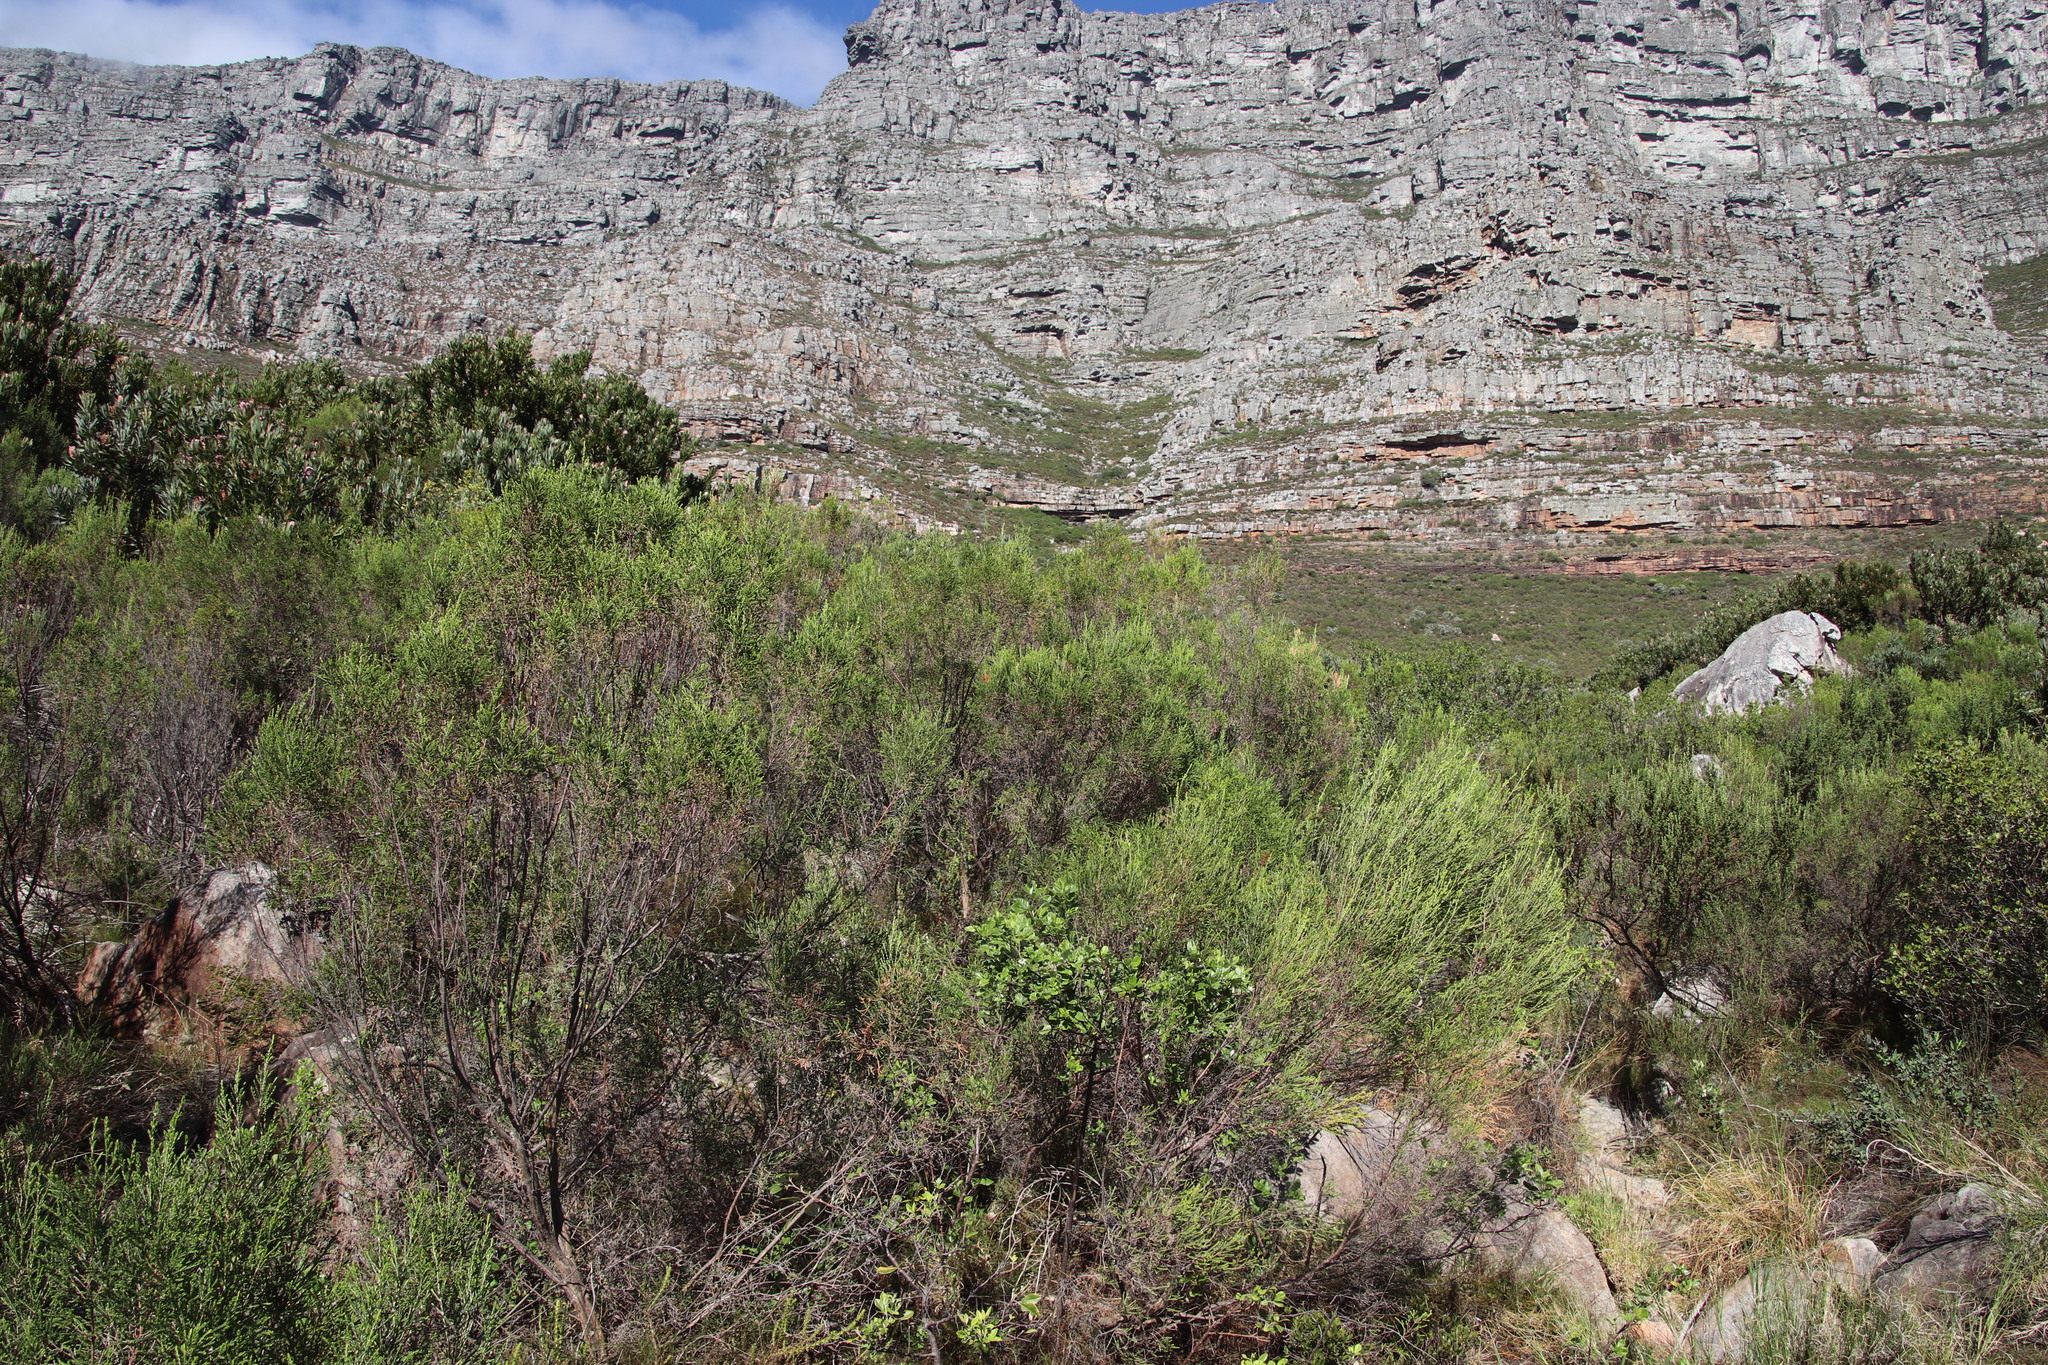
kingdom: Plantae
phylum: Tracheophyta
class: Magnoliopsida
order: Malvales
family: Thymelaeaceae
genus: Passerina
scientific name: Passerina corymbosa
